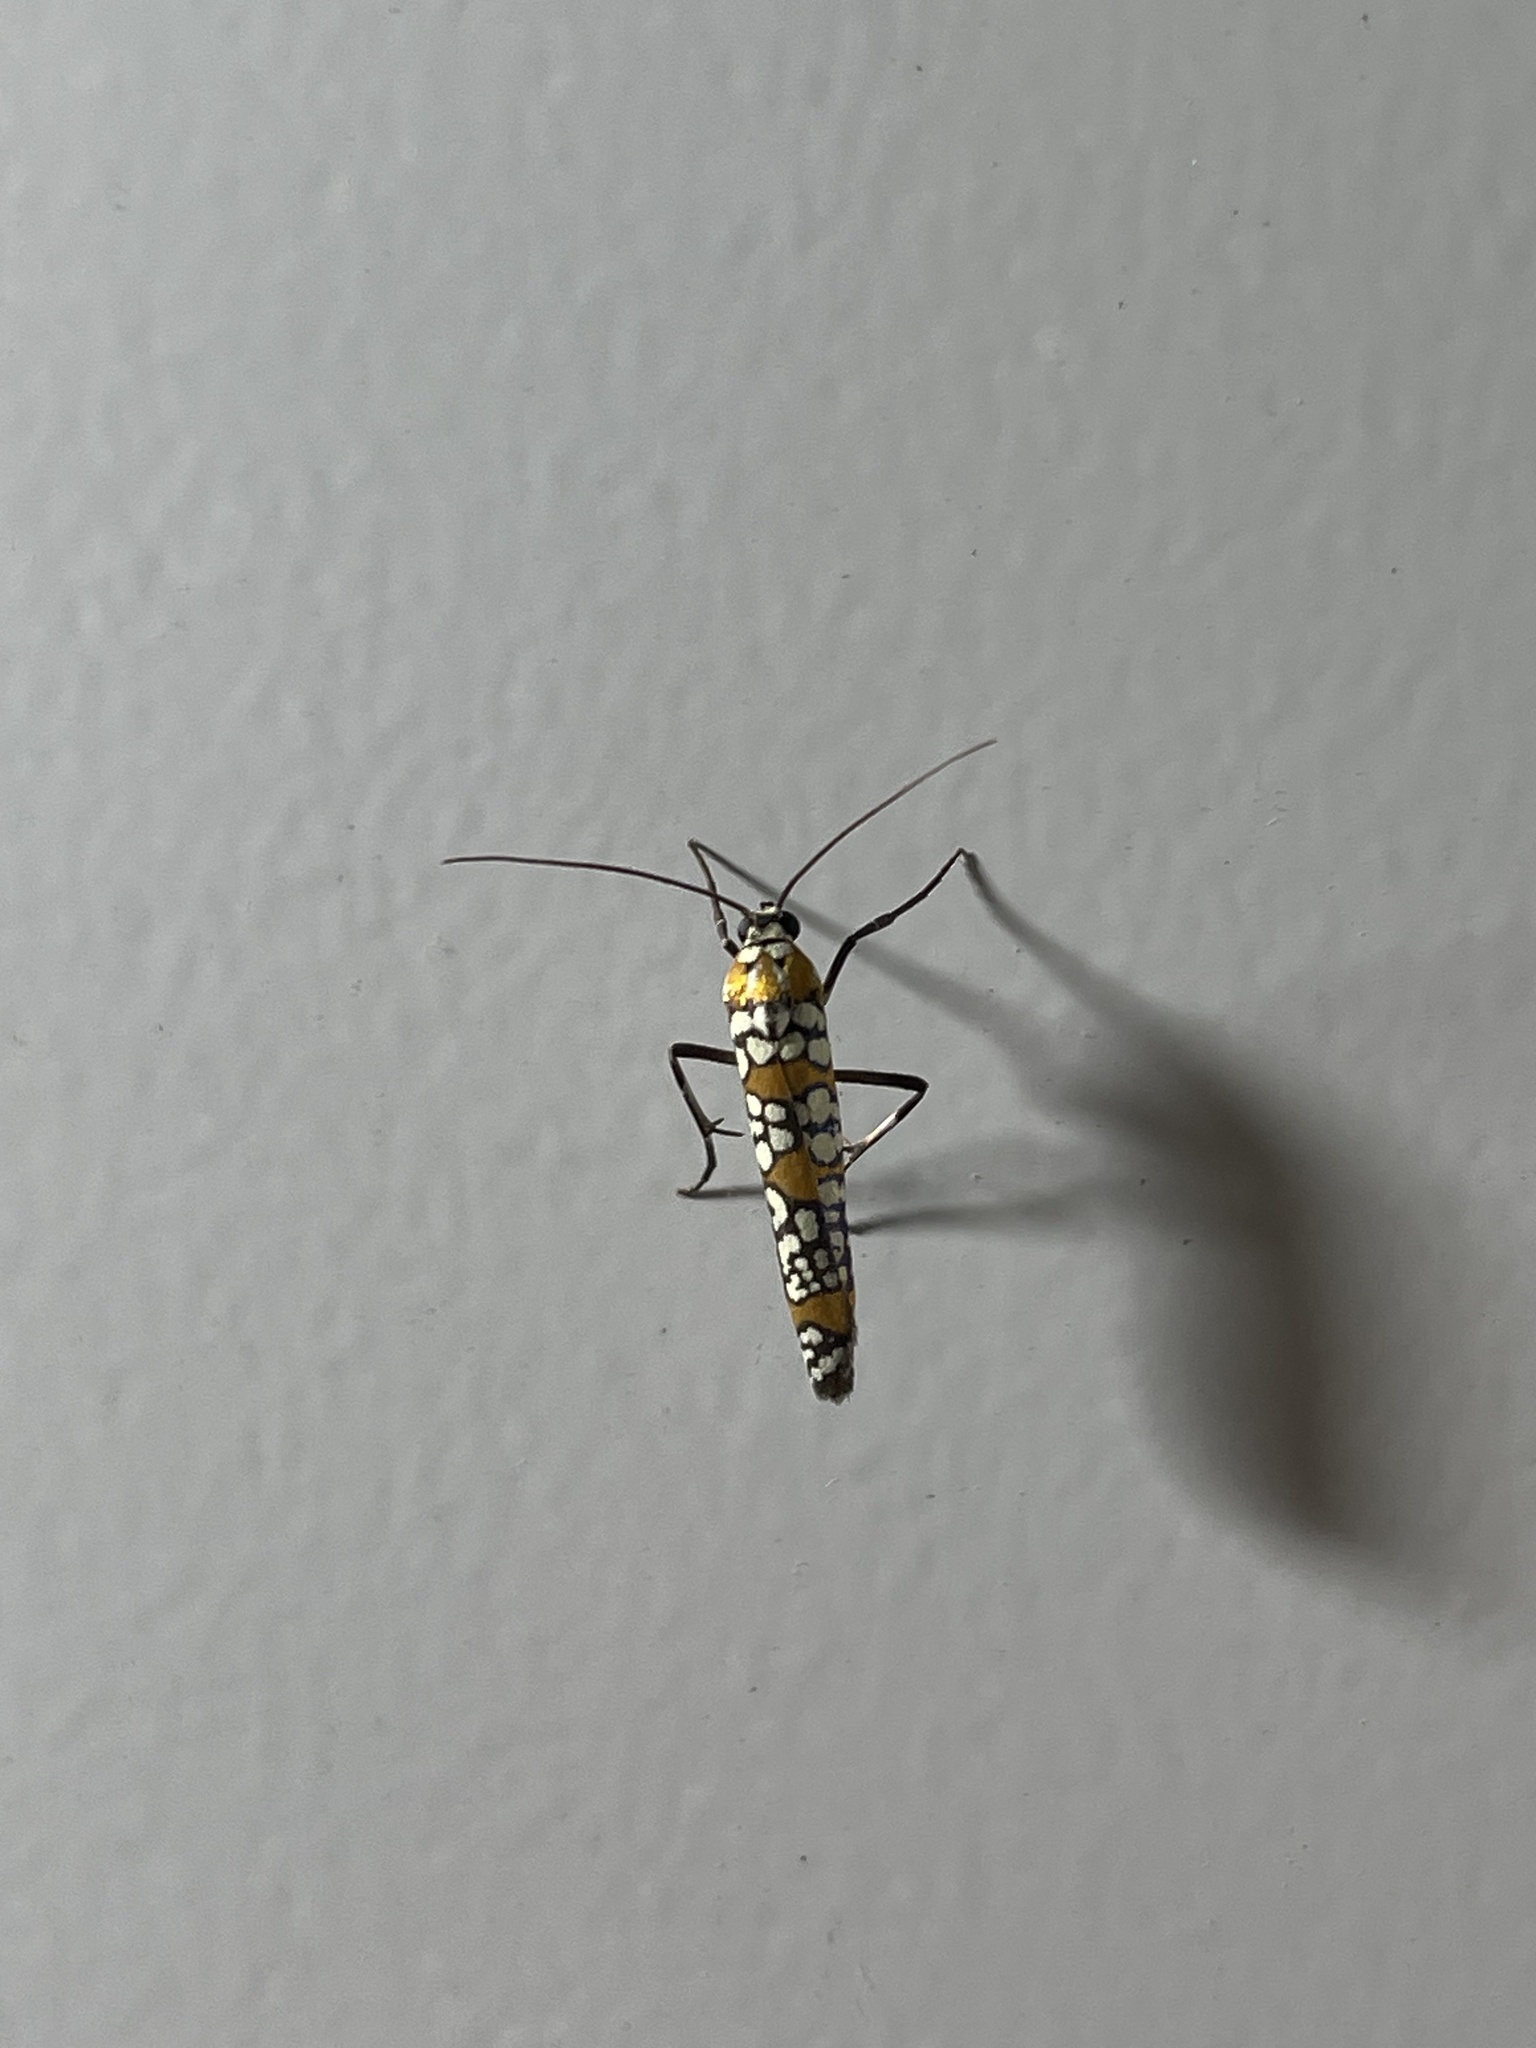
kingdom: Animalia
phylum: Arthropoda
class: Insecta
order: Lepidoptera
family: Attevidae
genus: Atteva
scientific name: Atteva punctella
